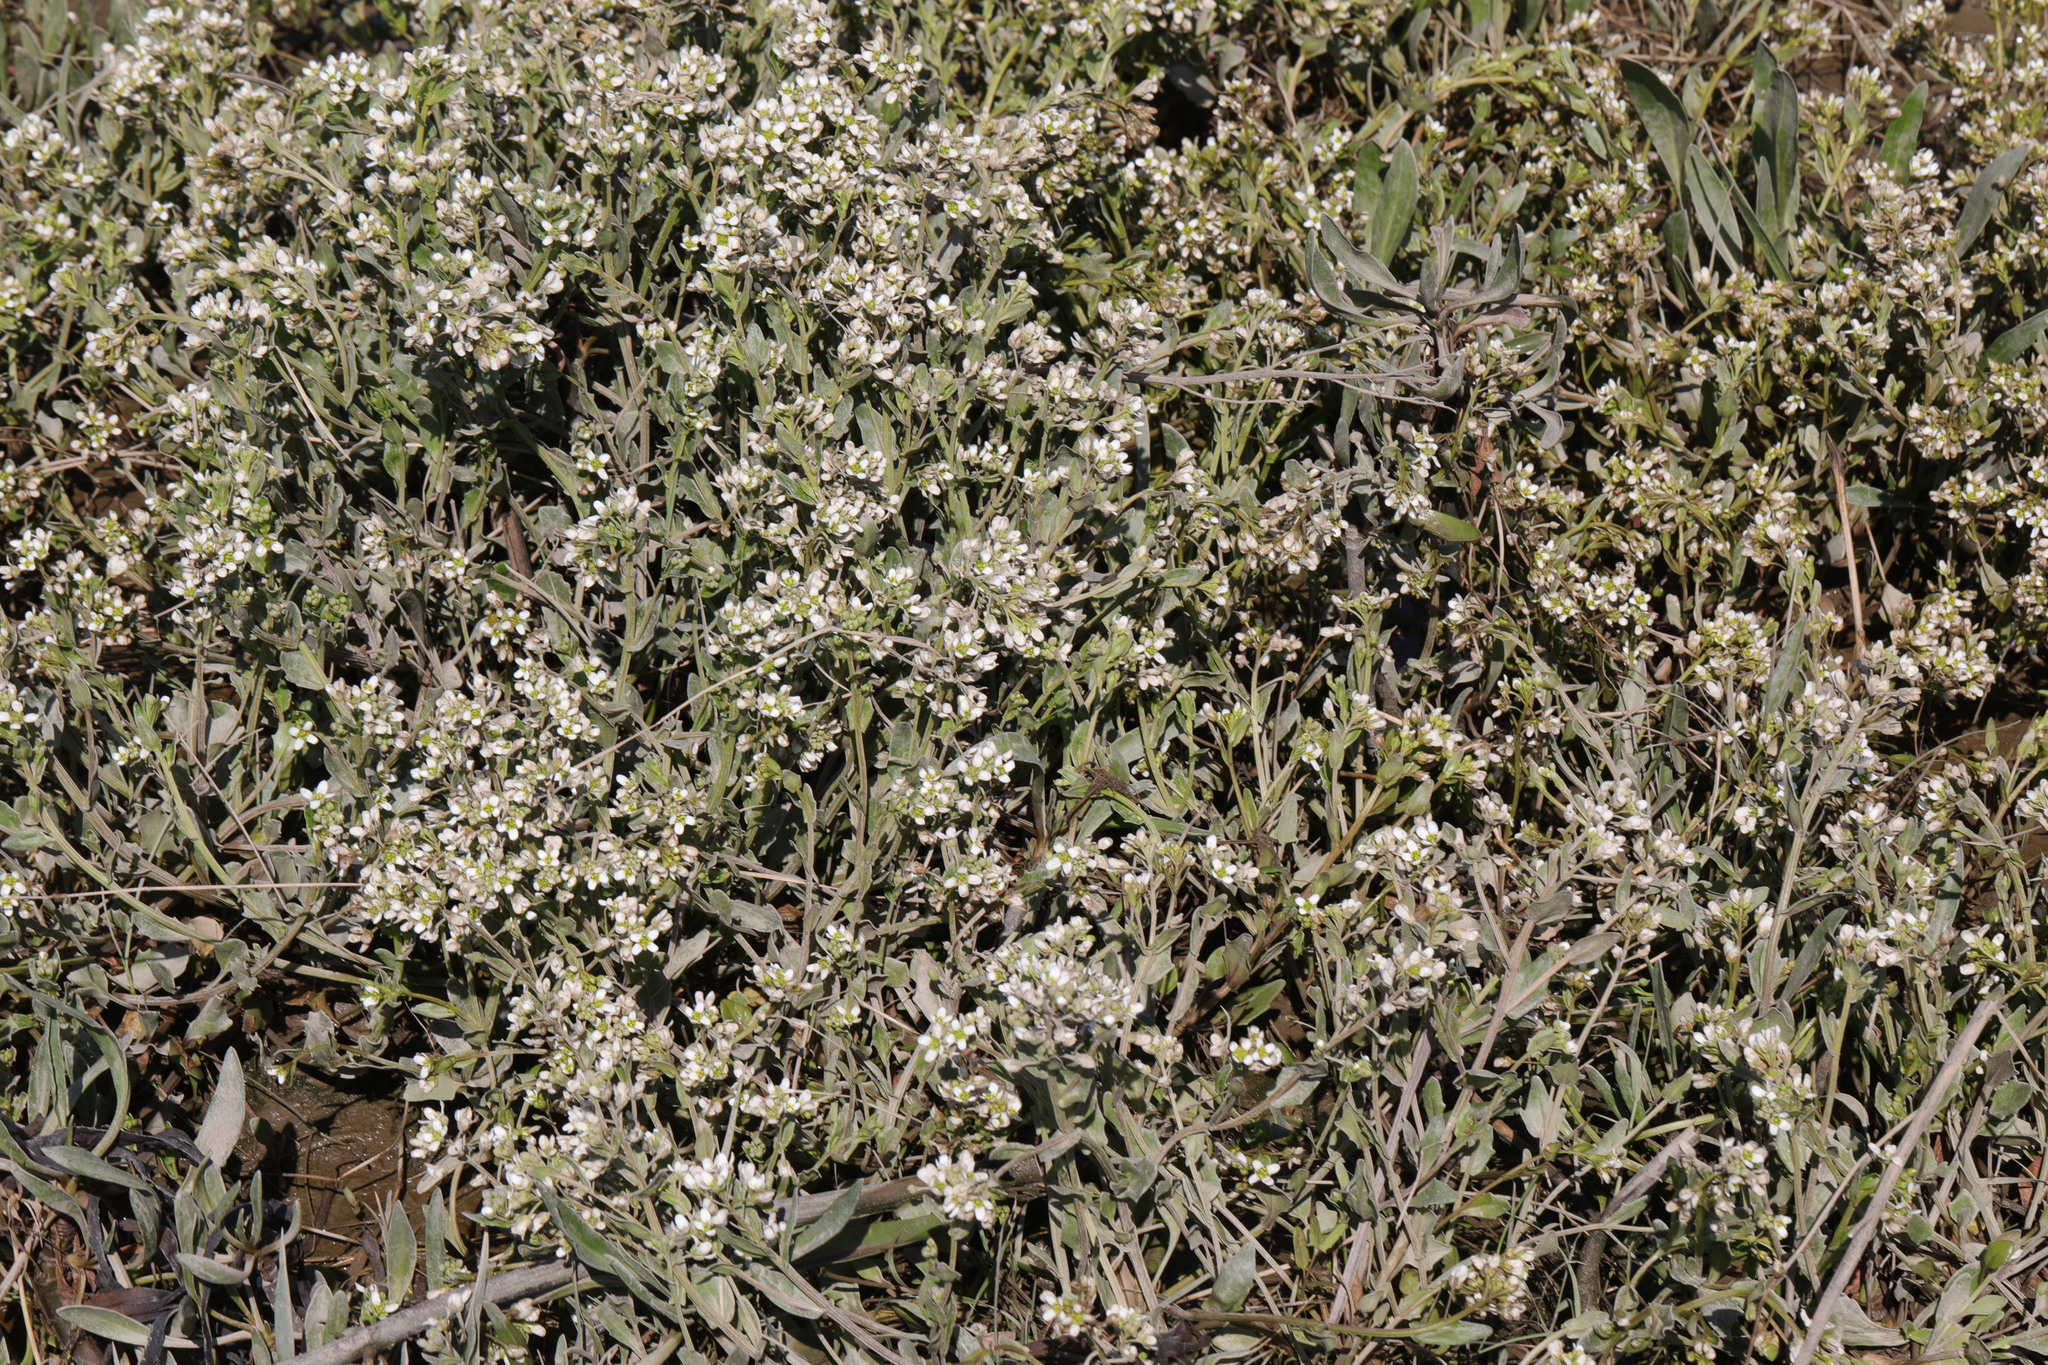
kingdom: Plantae
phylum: Tracheophyta
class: Magnoliopsida
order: Brassicales
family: Brassicaceae
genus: Cochlearia
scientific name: Cochlearia hollandica
